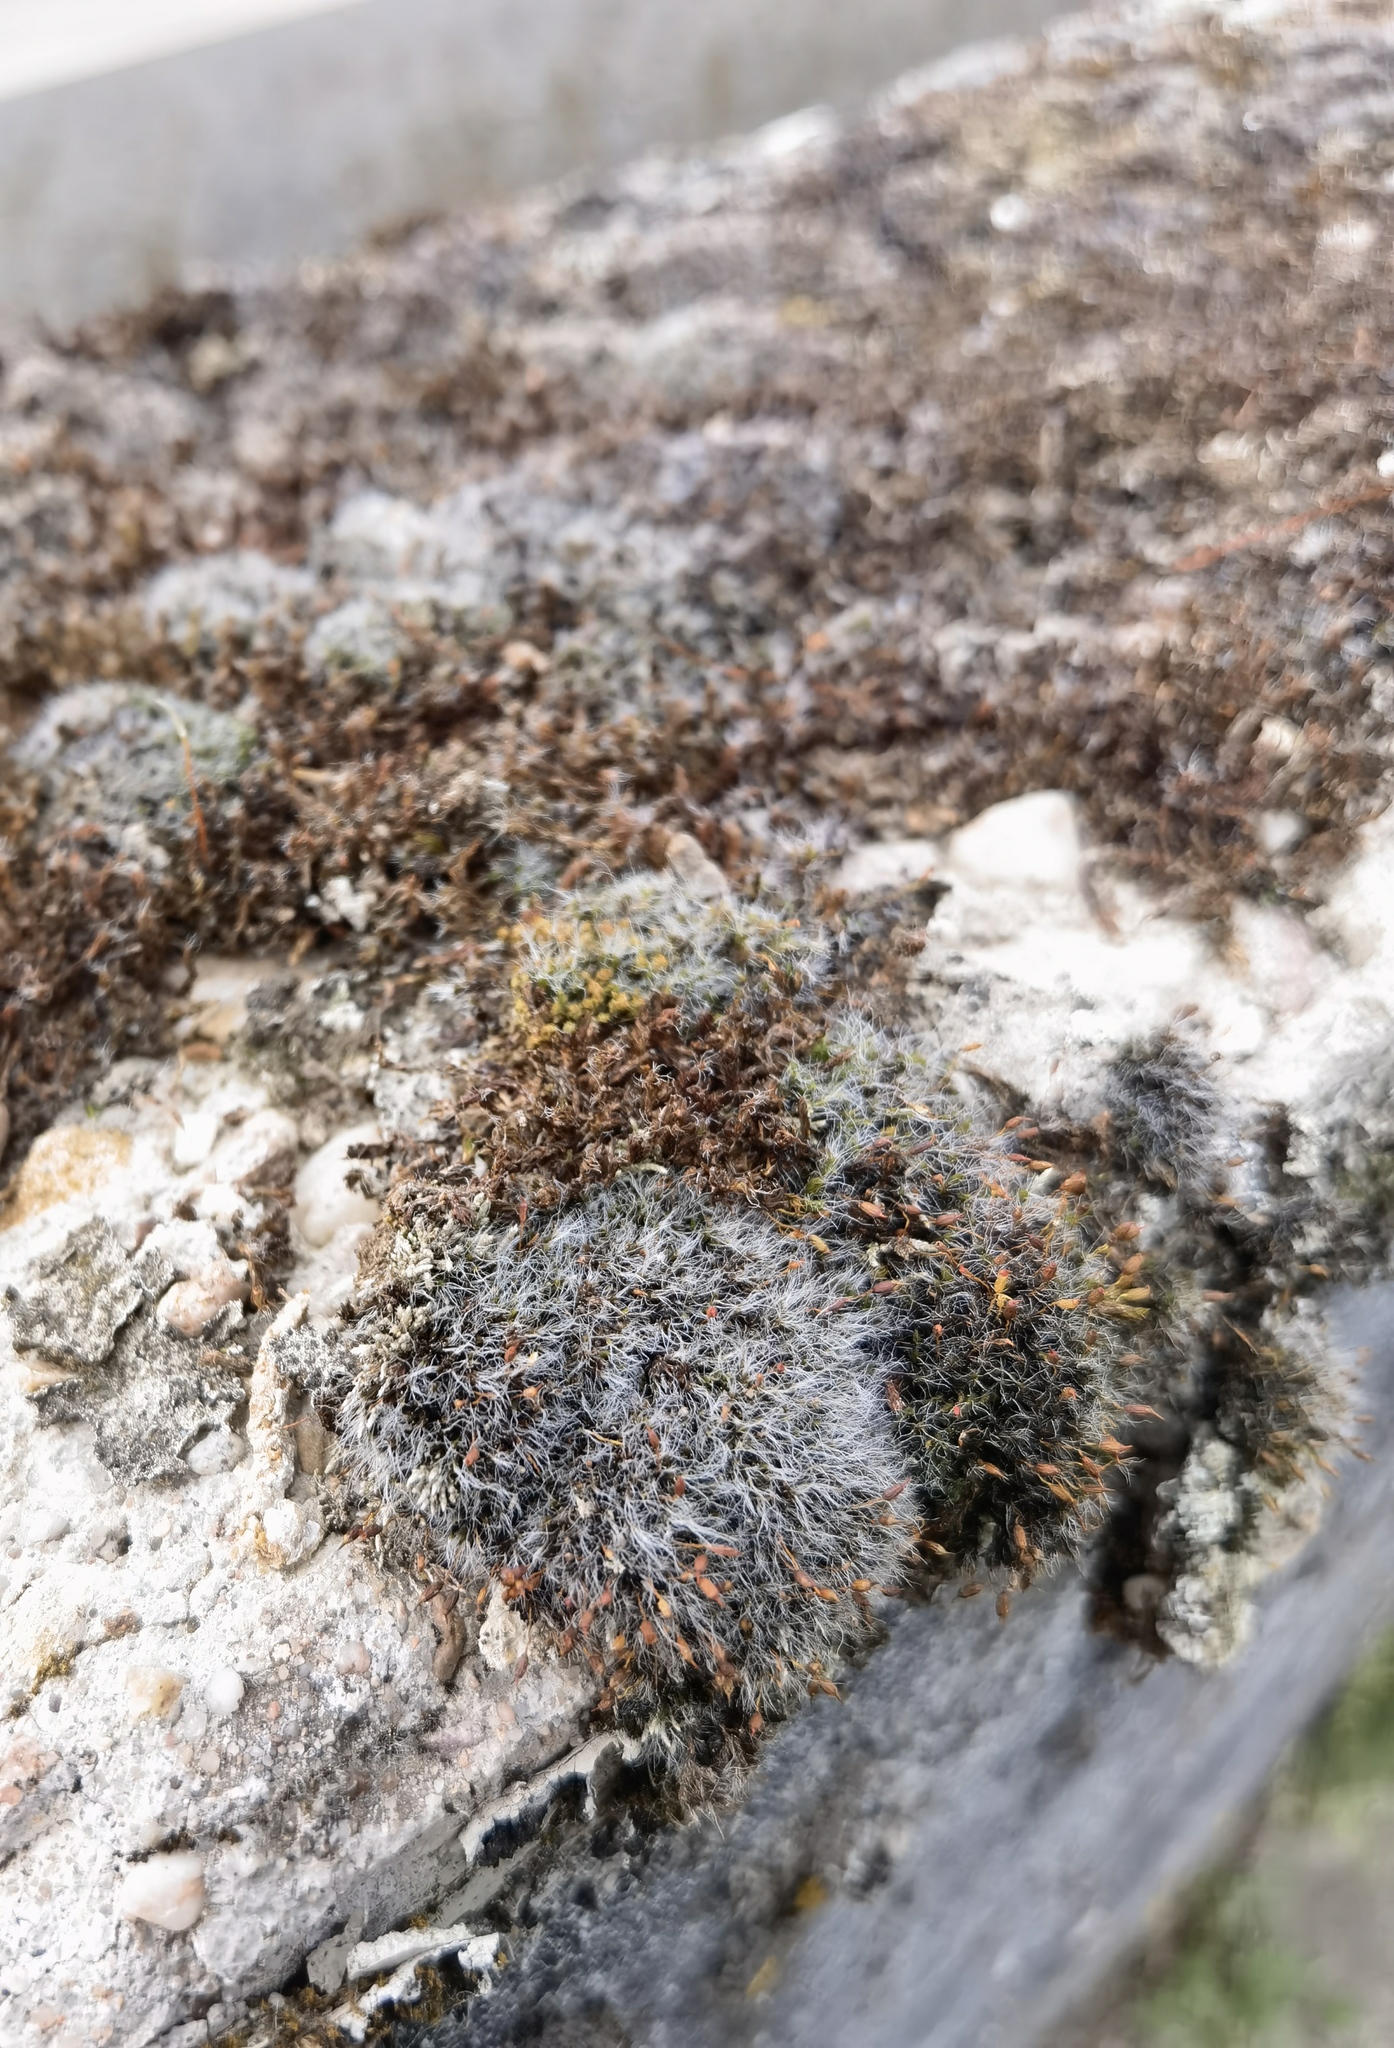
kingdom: Plantae
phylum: Bryophyta
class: Bryopsida
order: Grimmiales
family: Grimmiaceae
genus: Grimmia
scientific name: Grimmia pulvinata
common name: Grey-cushioned grimmia
